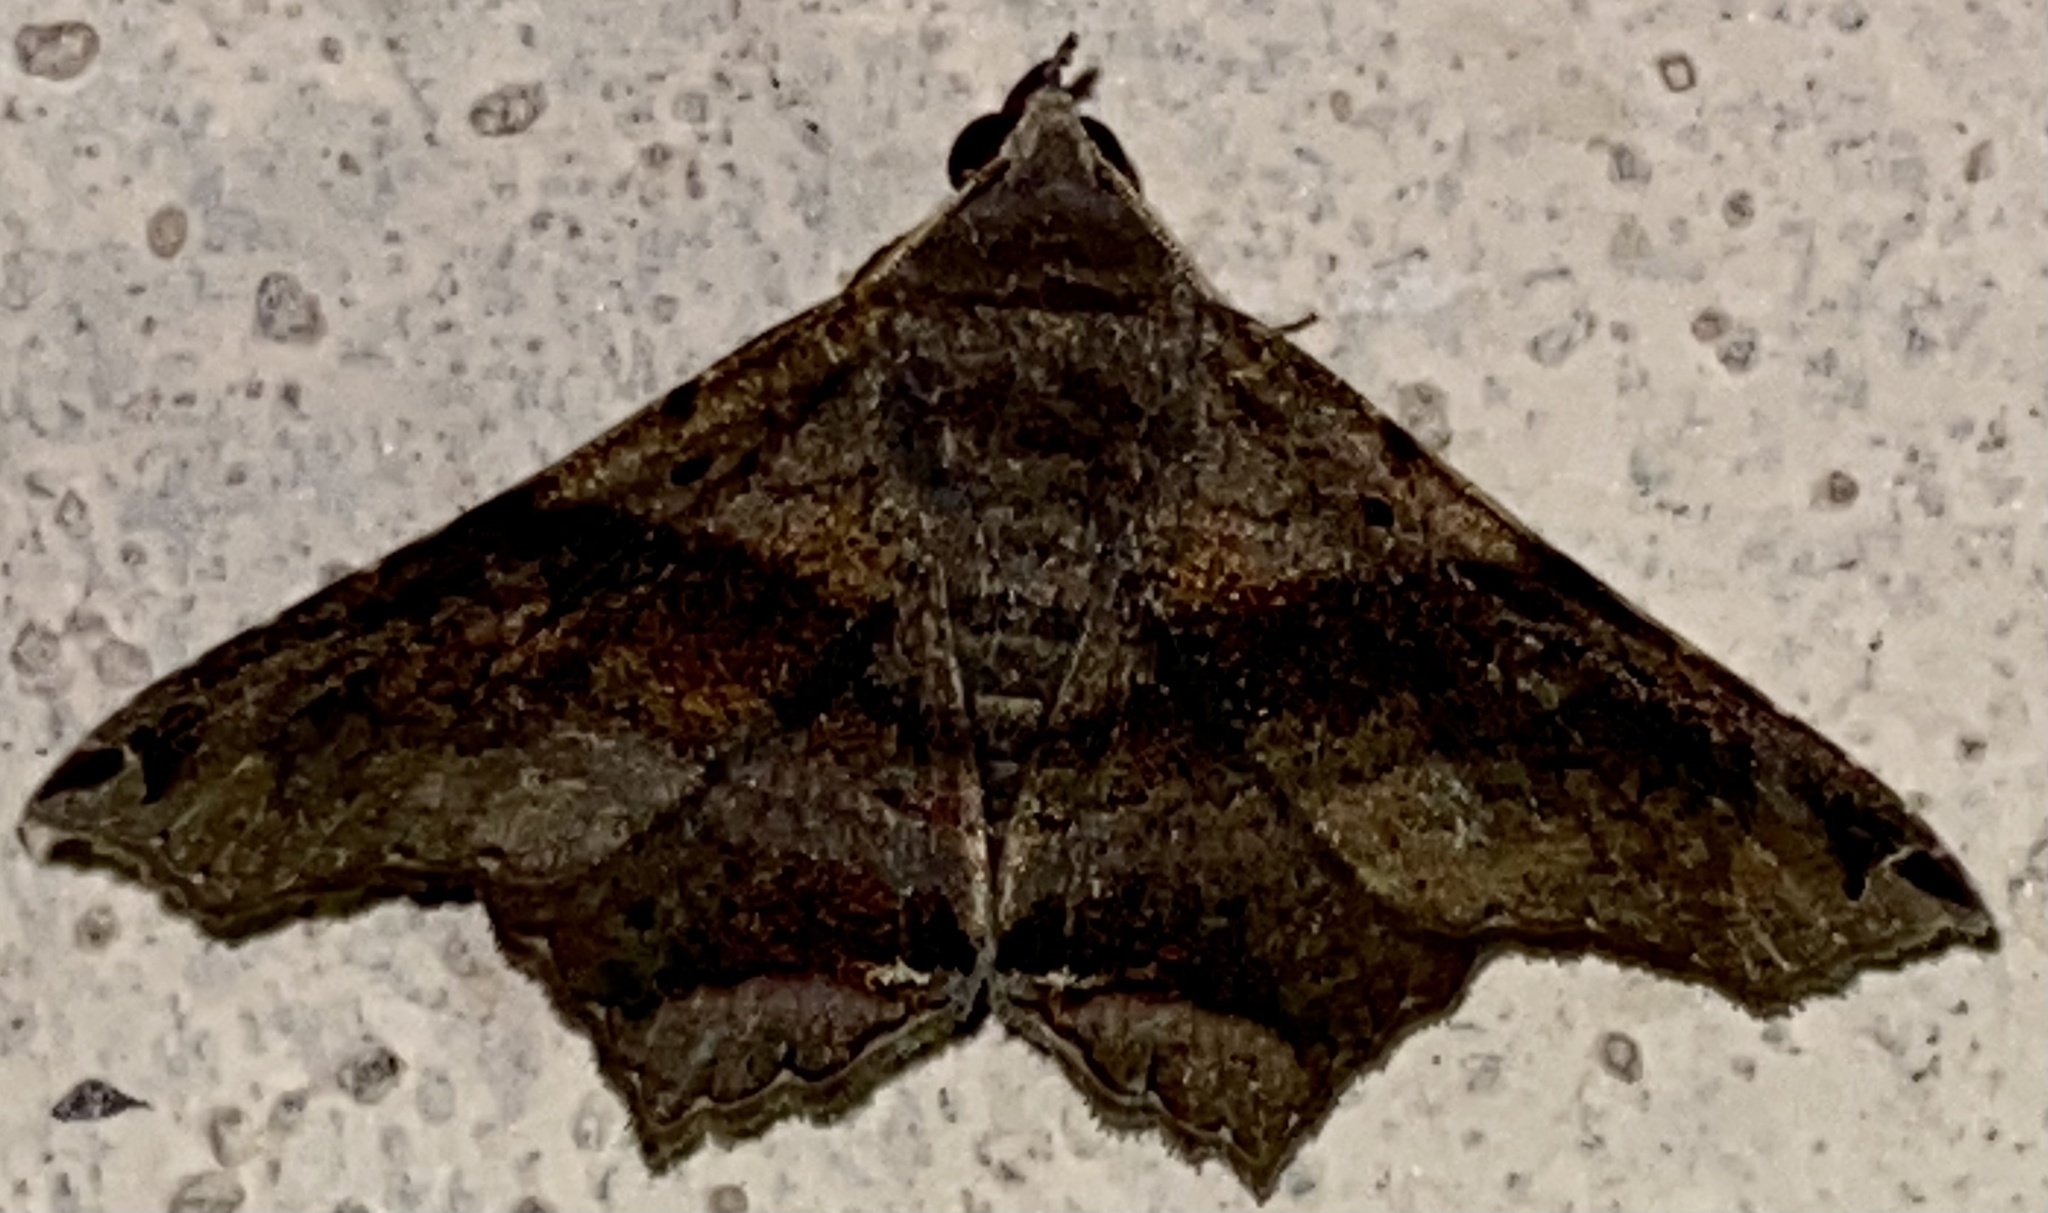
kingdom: Animalia
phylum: Arthropoda
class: Insecta
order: Lepidoptera
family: Erebidae
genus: Euclystis
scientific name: Euclystis manto
